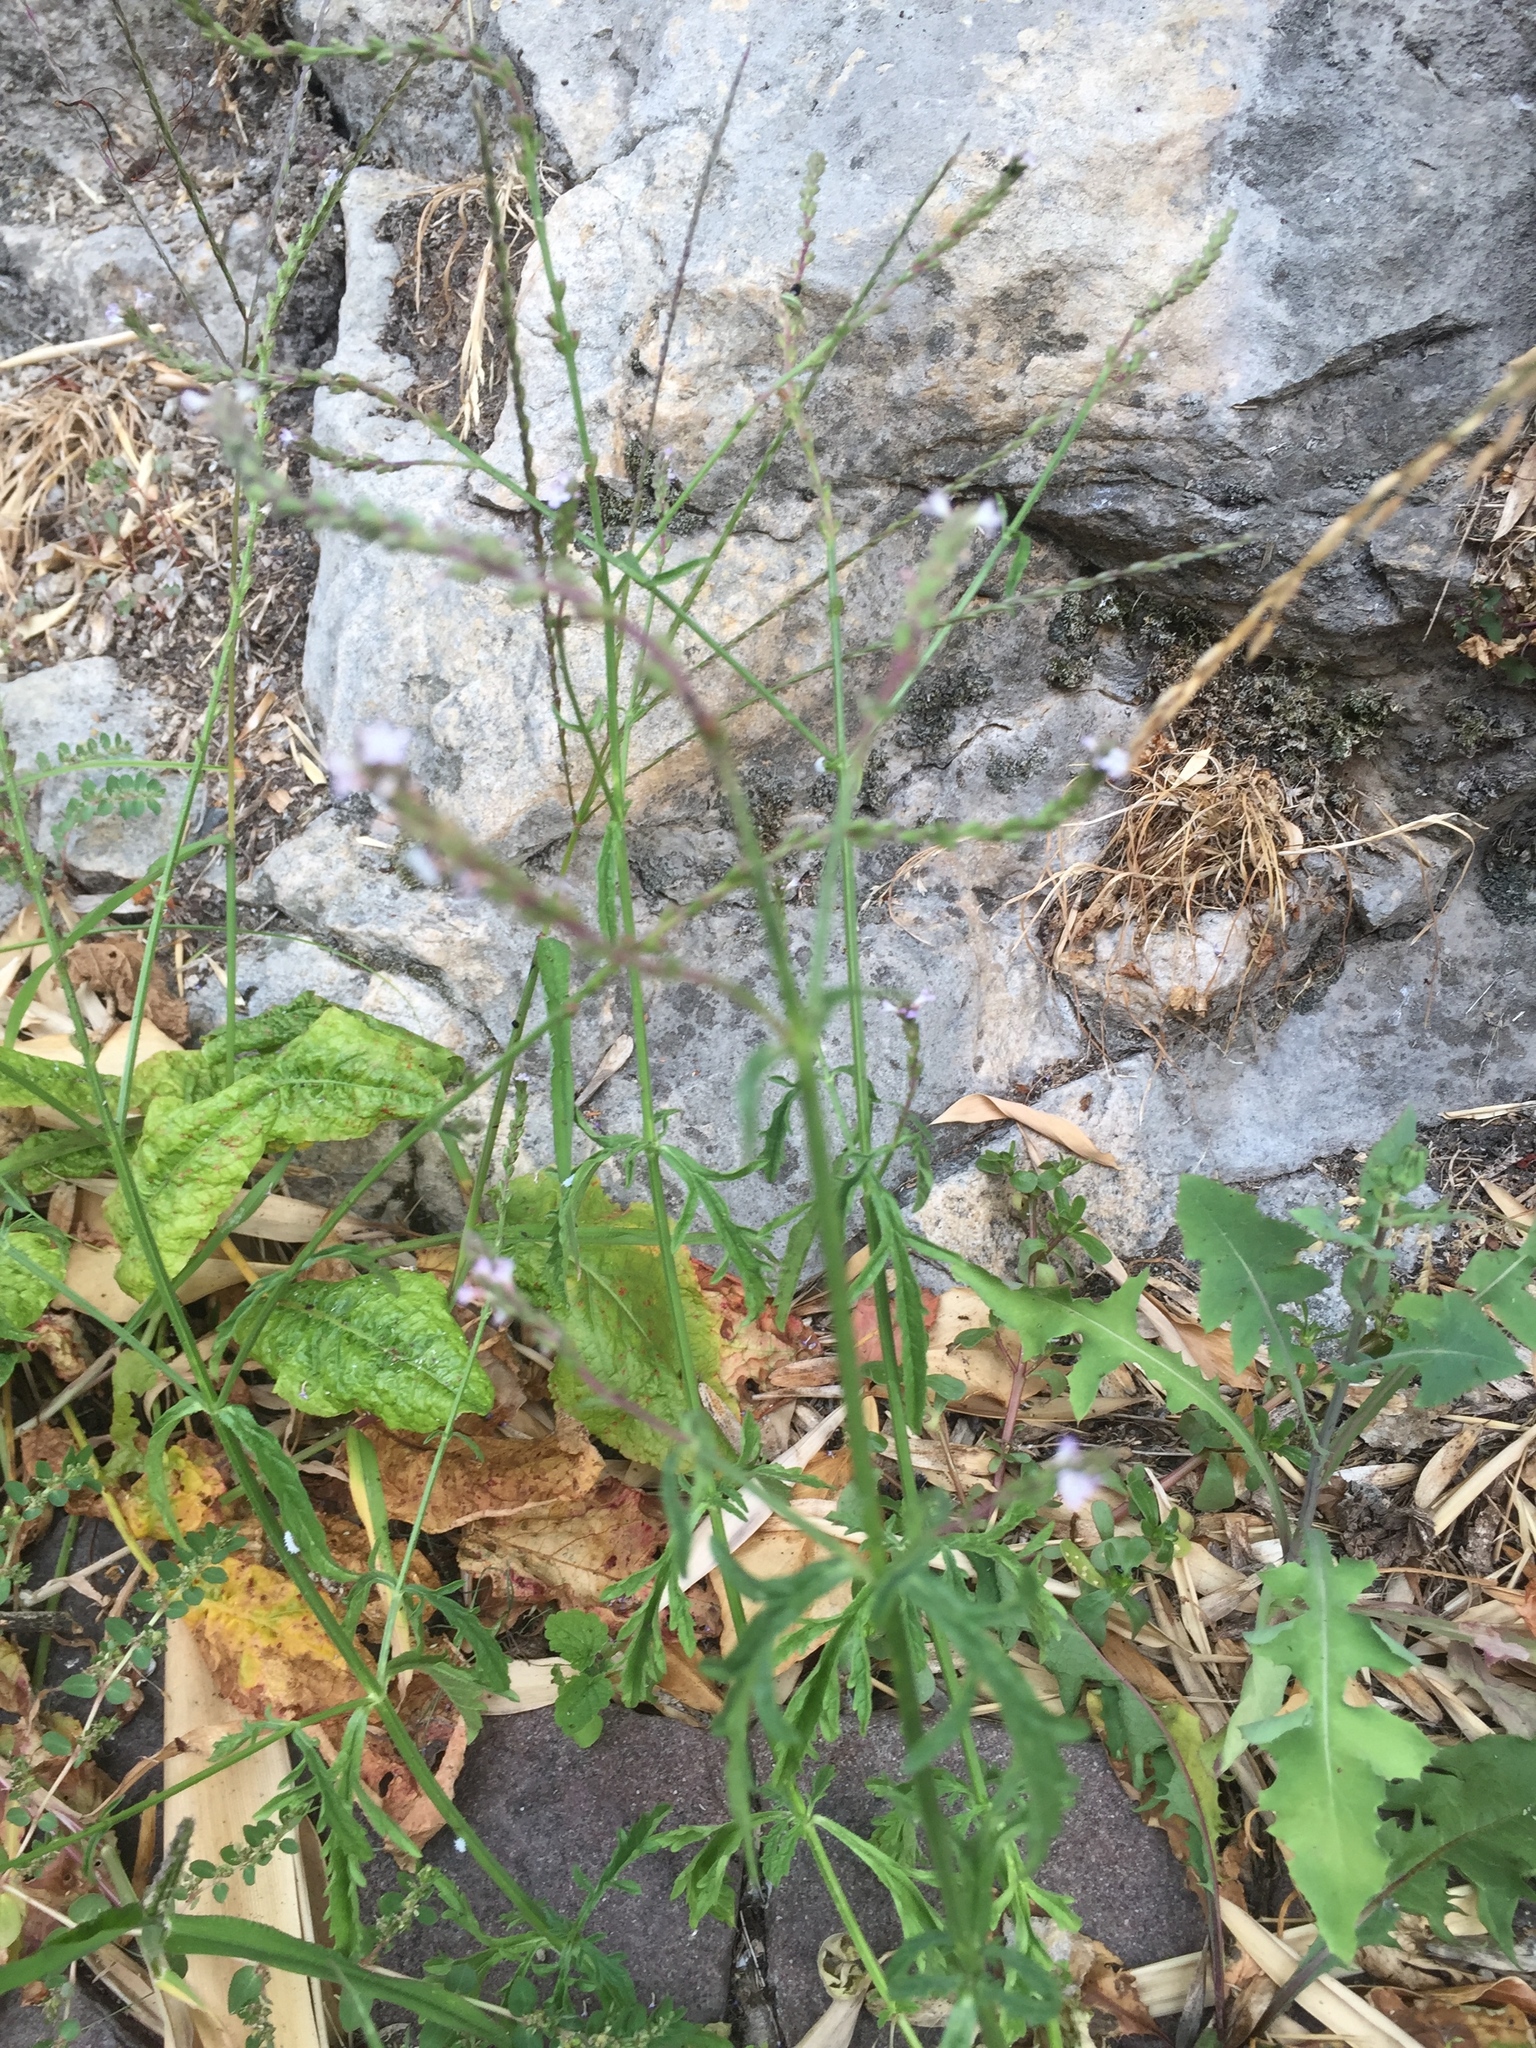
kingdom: Plantae
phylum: Tracheophyta
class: Magnoliopsida
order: Lamiales
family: Verbenaceae
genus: Verbena
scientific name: Verbena officinalis
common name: Vervain
